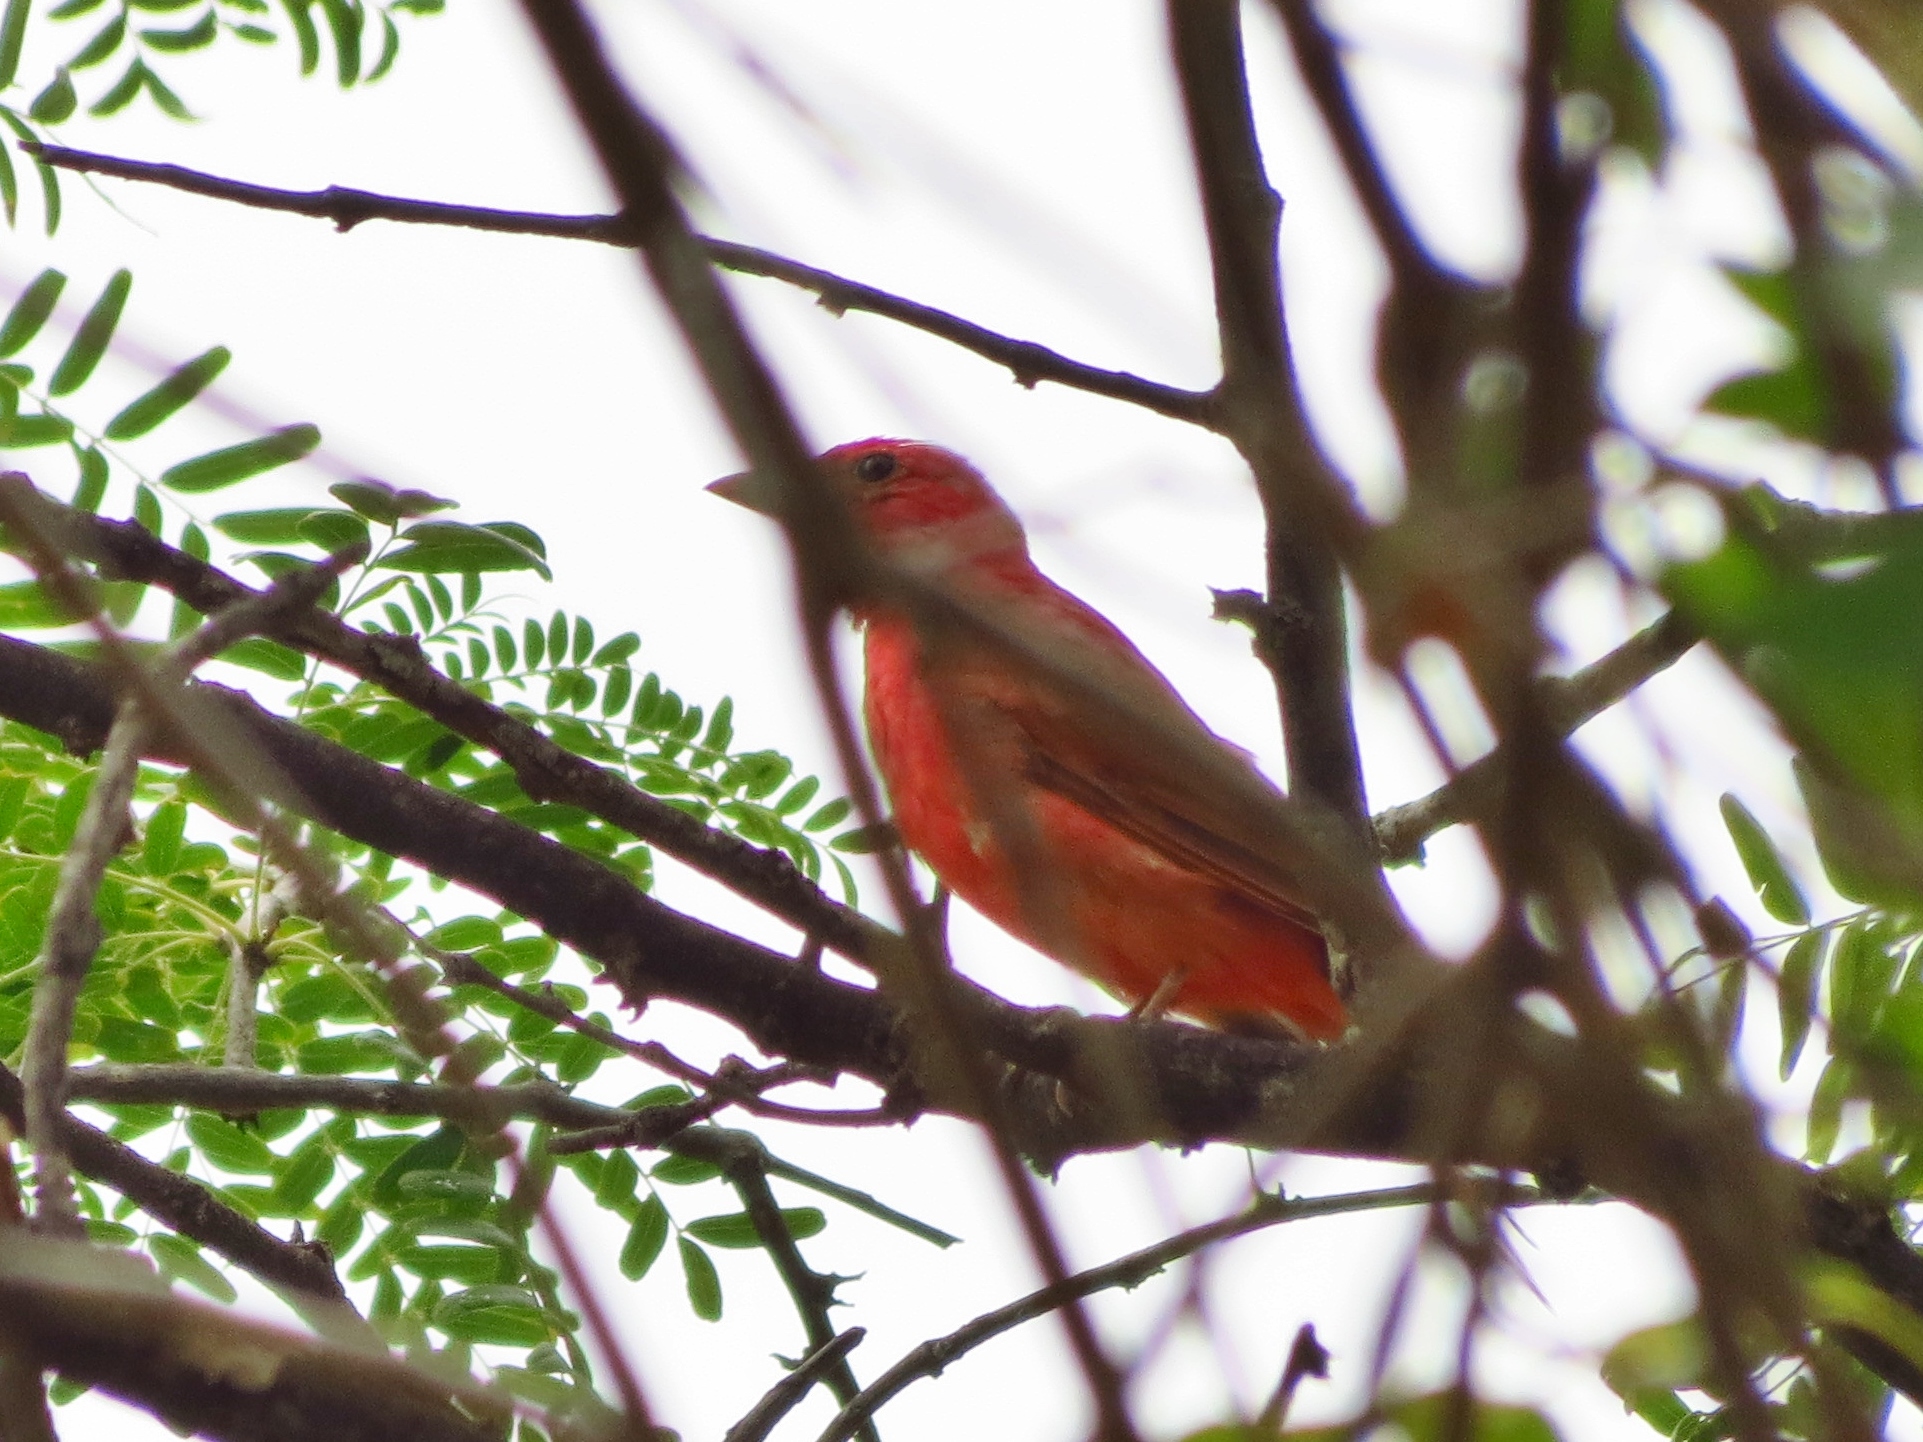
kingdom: Animalia
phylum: Chordata
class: Aves
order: Passeriformes
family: Cardinalidae
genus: Piranga
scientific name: Piranga rubra
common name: Summer tanager
